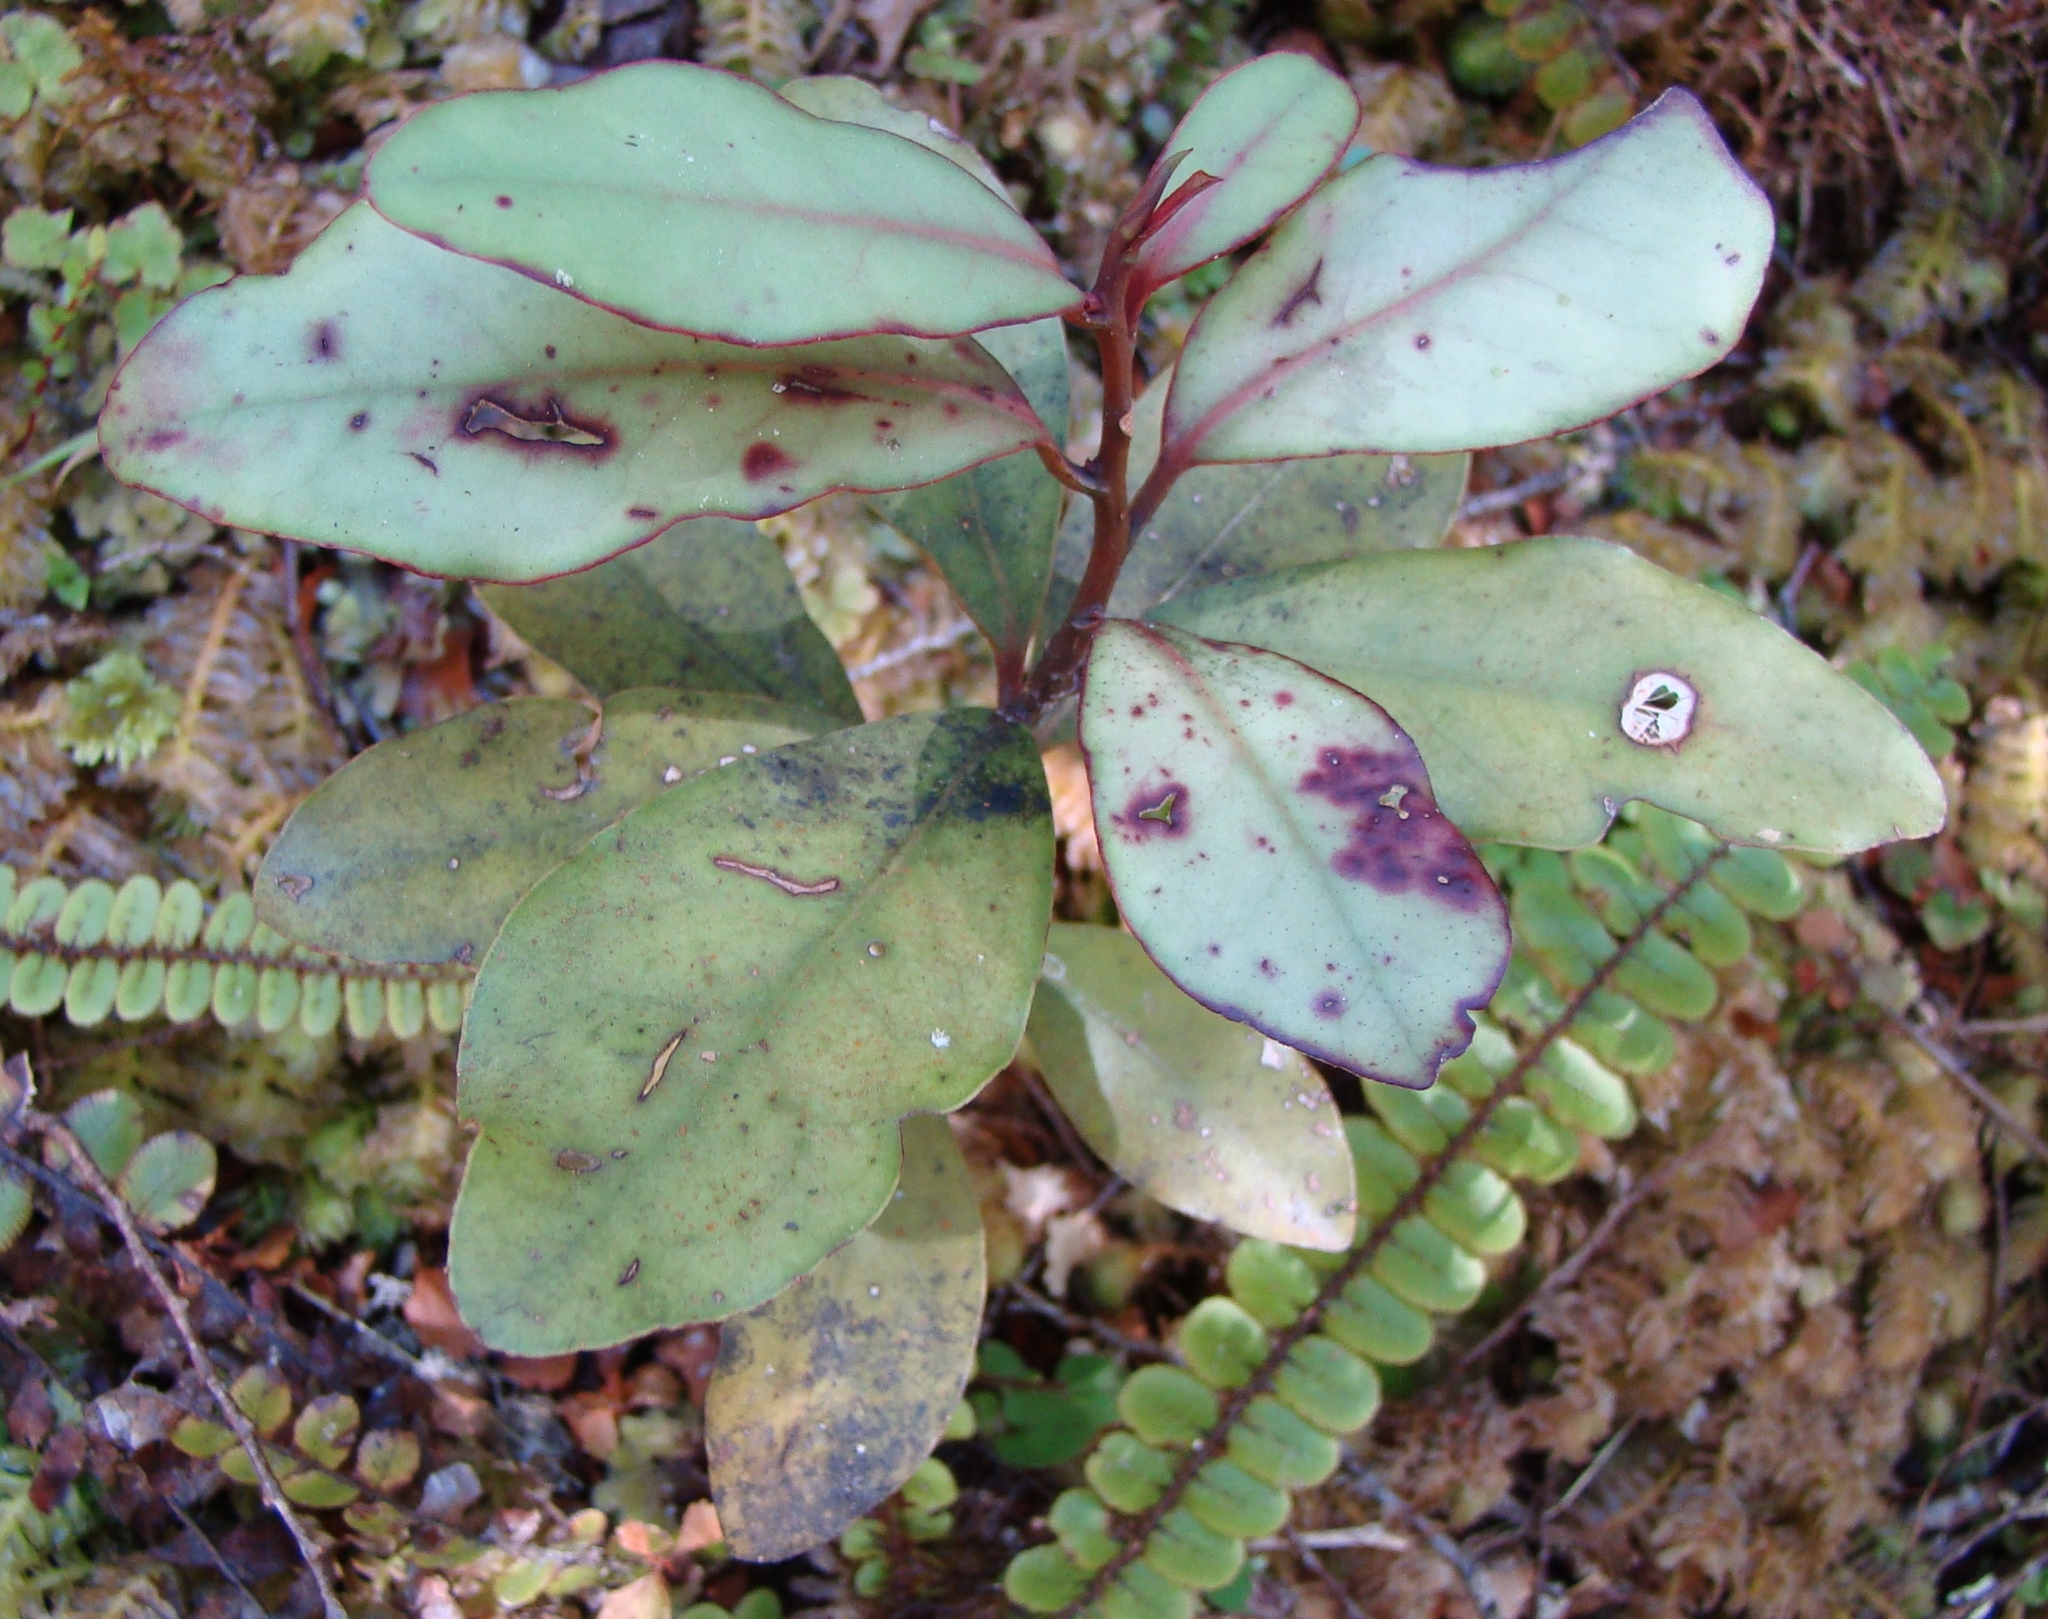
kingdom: Plantae
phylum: Tracheophyta
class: Magnoliopsida
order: Canellales
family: Winteraceae
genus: Pseudowintera
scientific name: Pseudowintera colorata
